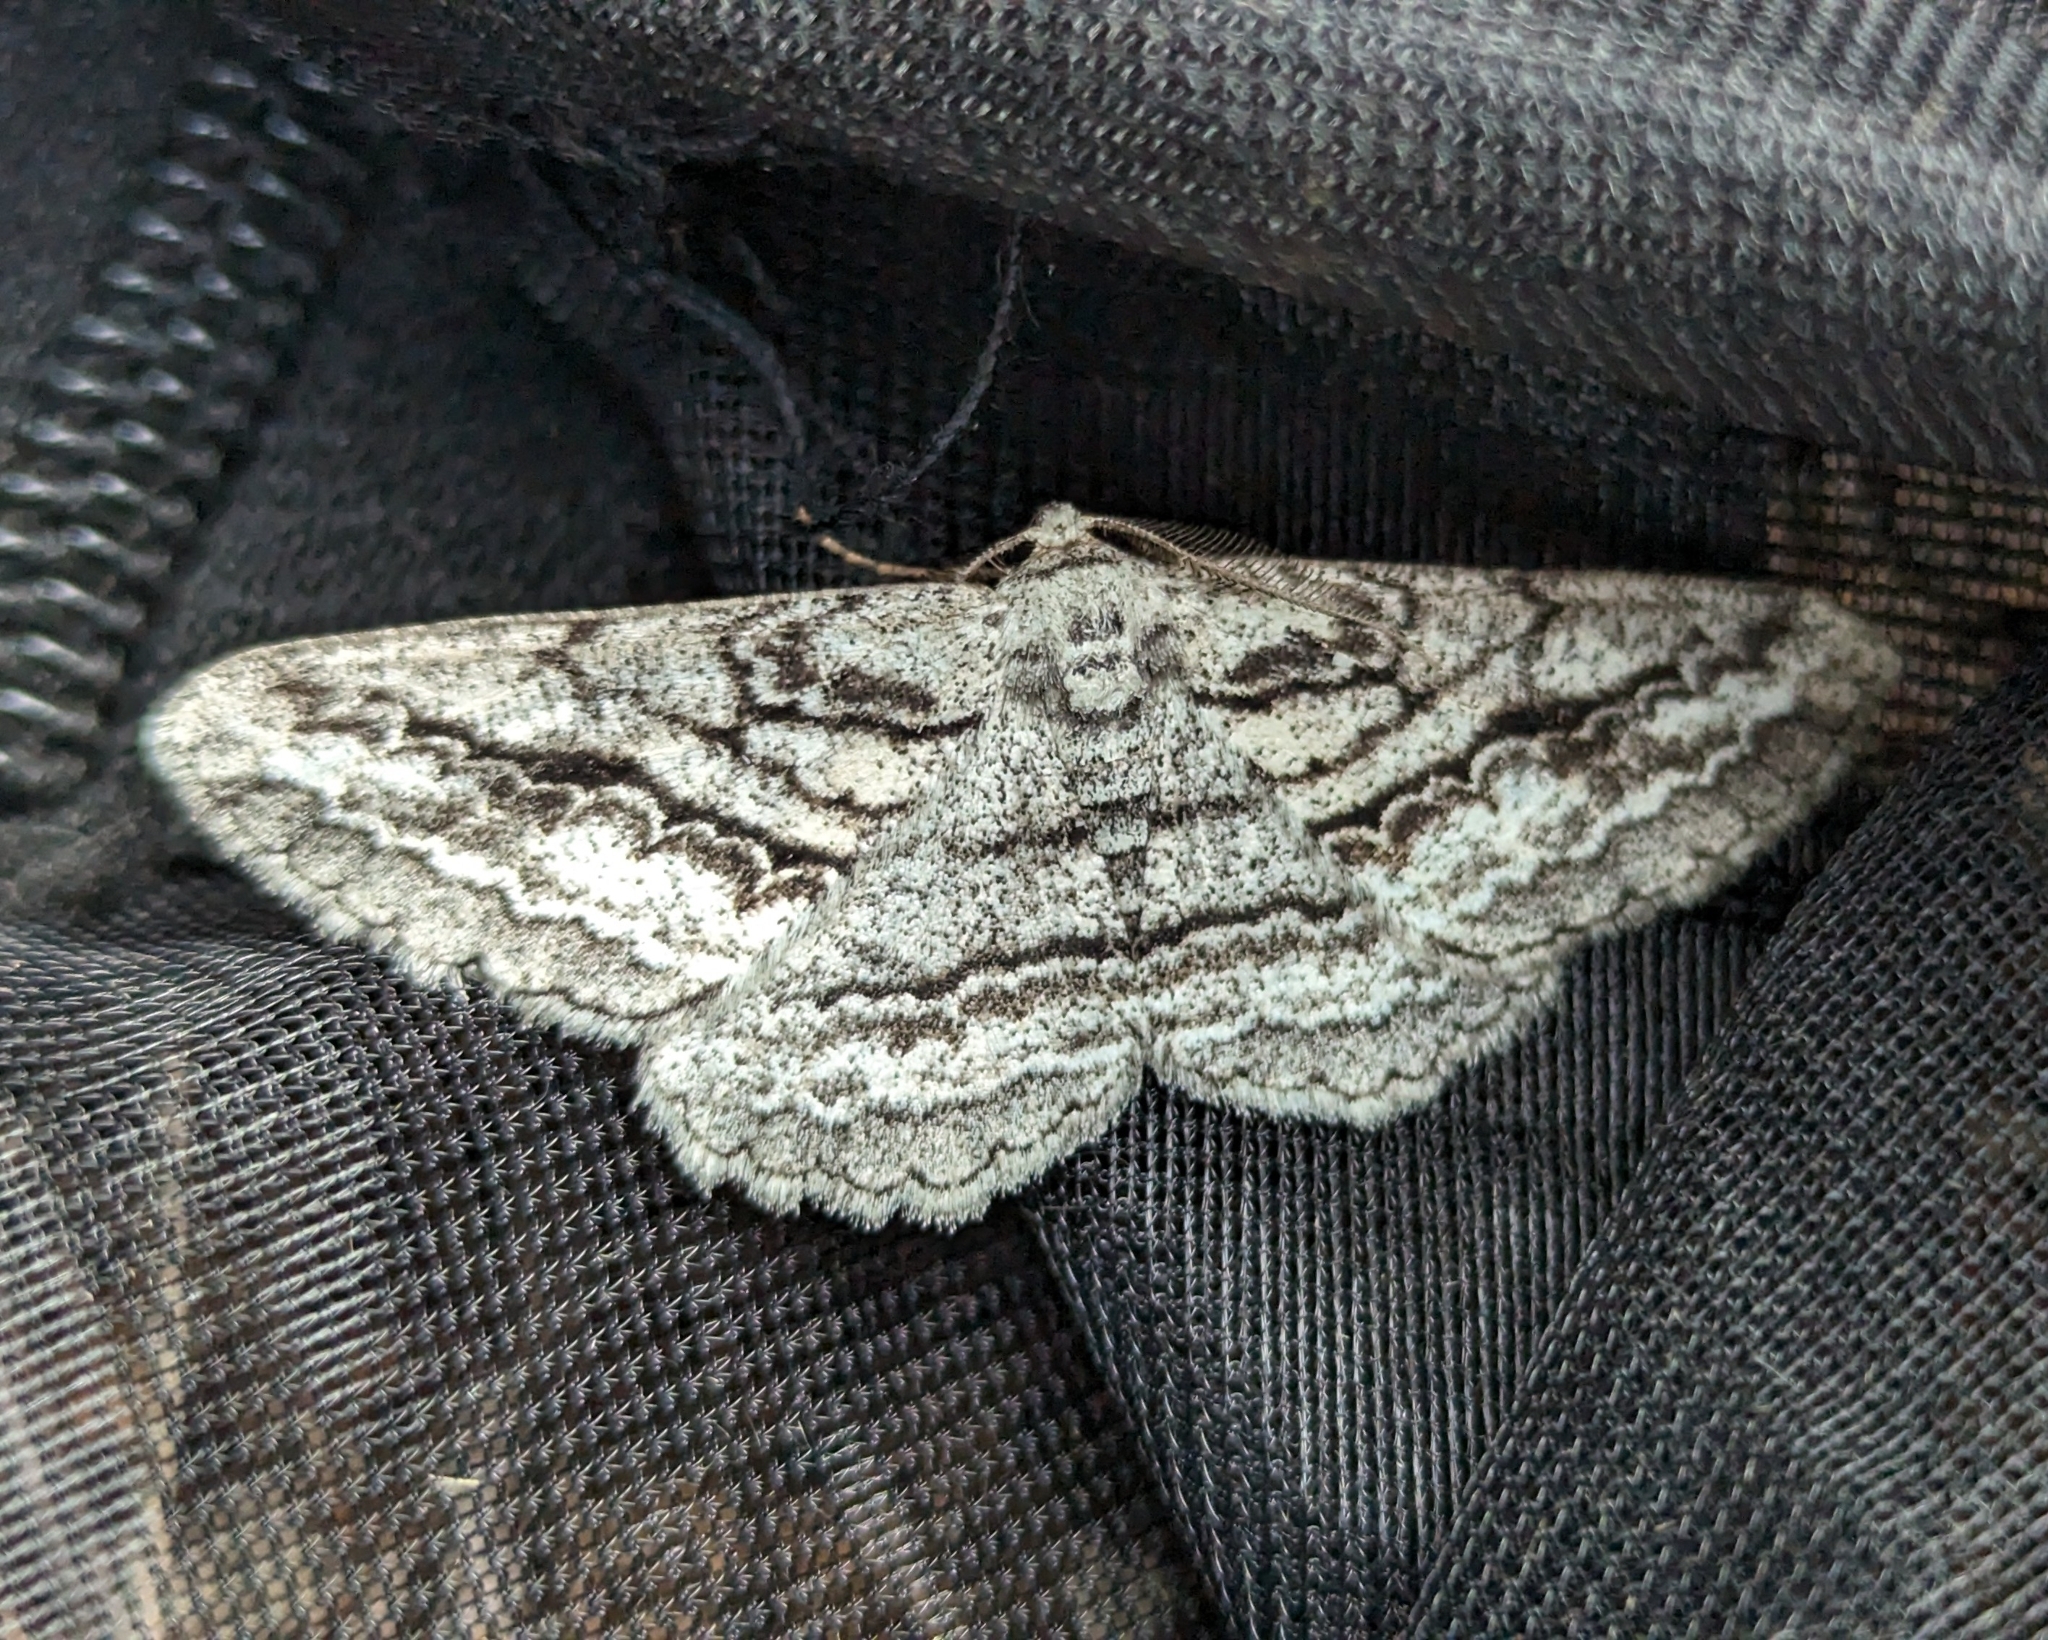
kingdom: Animalia
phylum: Arthropoda
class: Insecta
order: Lepidoptera
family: Geometridae
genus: Stenoporpia
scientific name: Stenoporpia excelsaria
